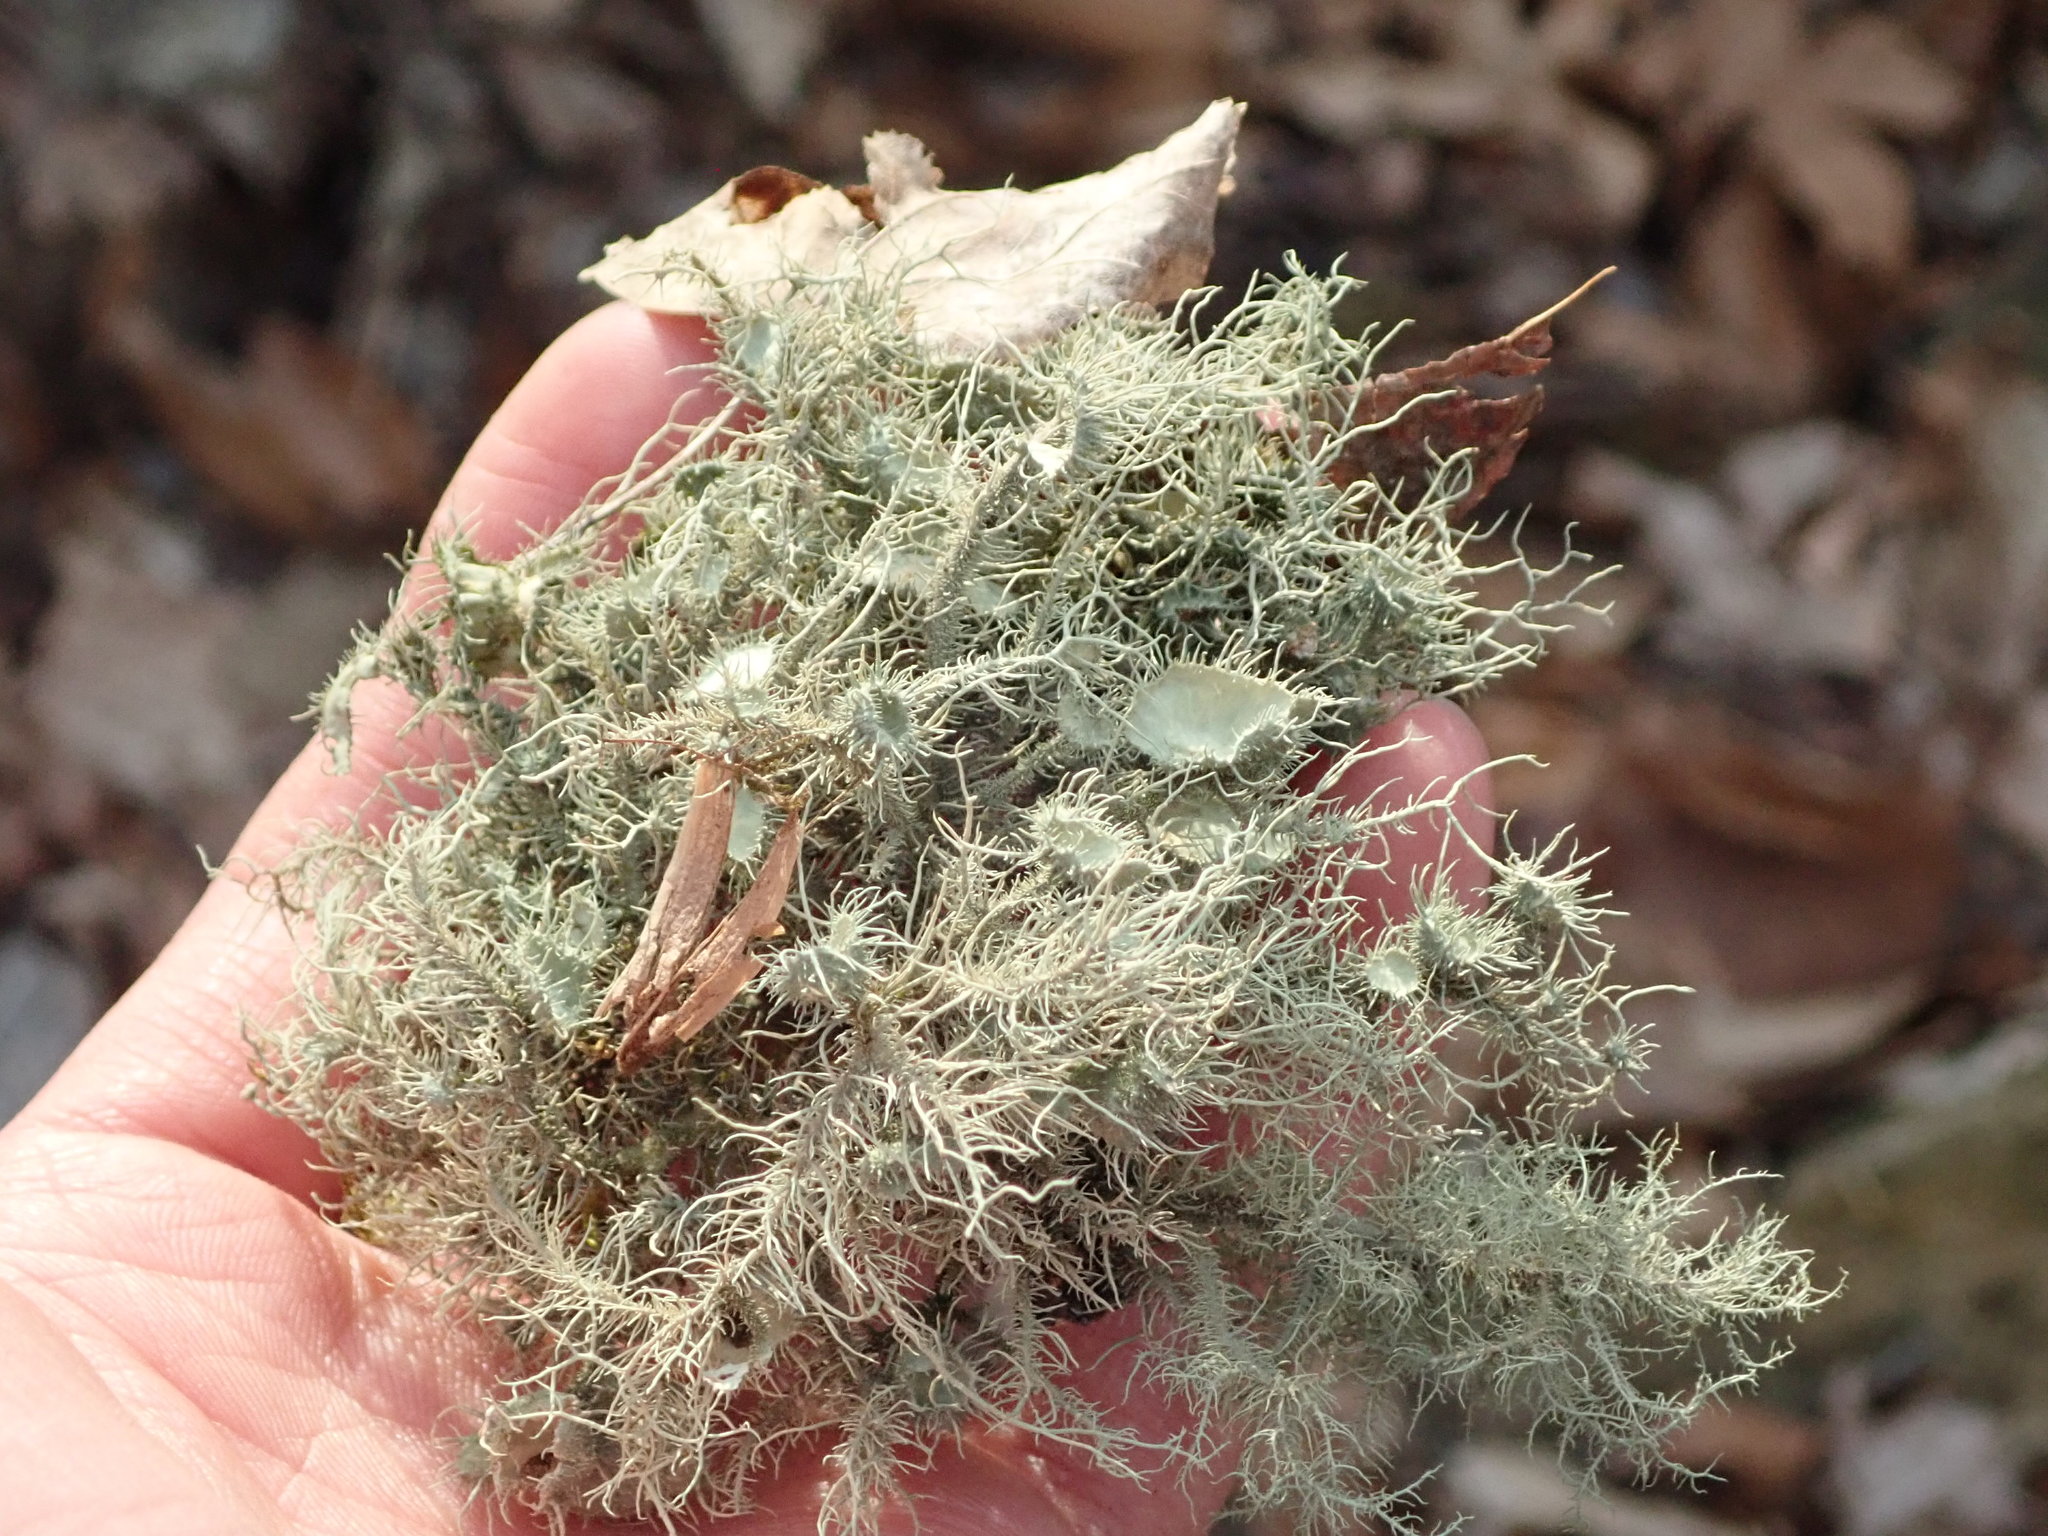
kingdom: Fungi
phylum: Ascomycota
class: Lecanoromycetes
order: Lecanorales
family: Parmeliaceae
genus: Usnea
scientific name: Usnea strigosa
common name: Bushy beard lichen
